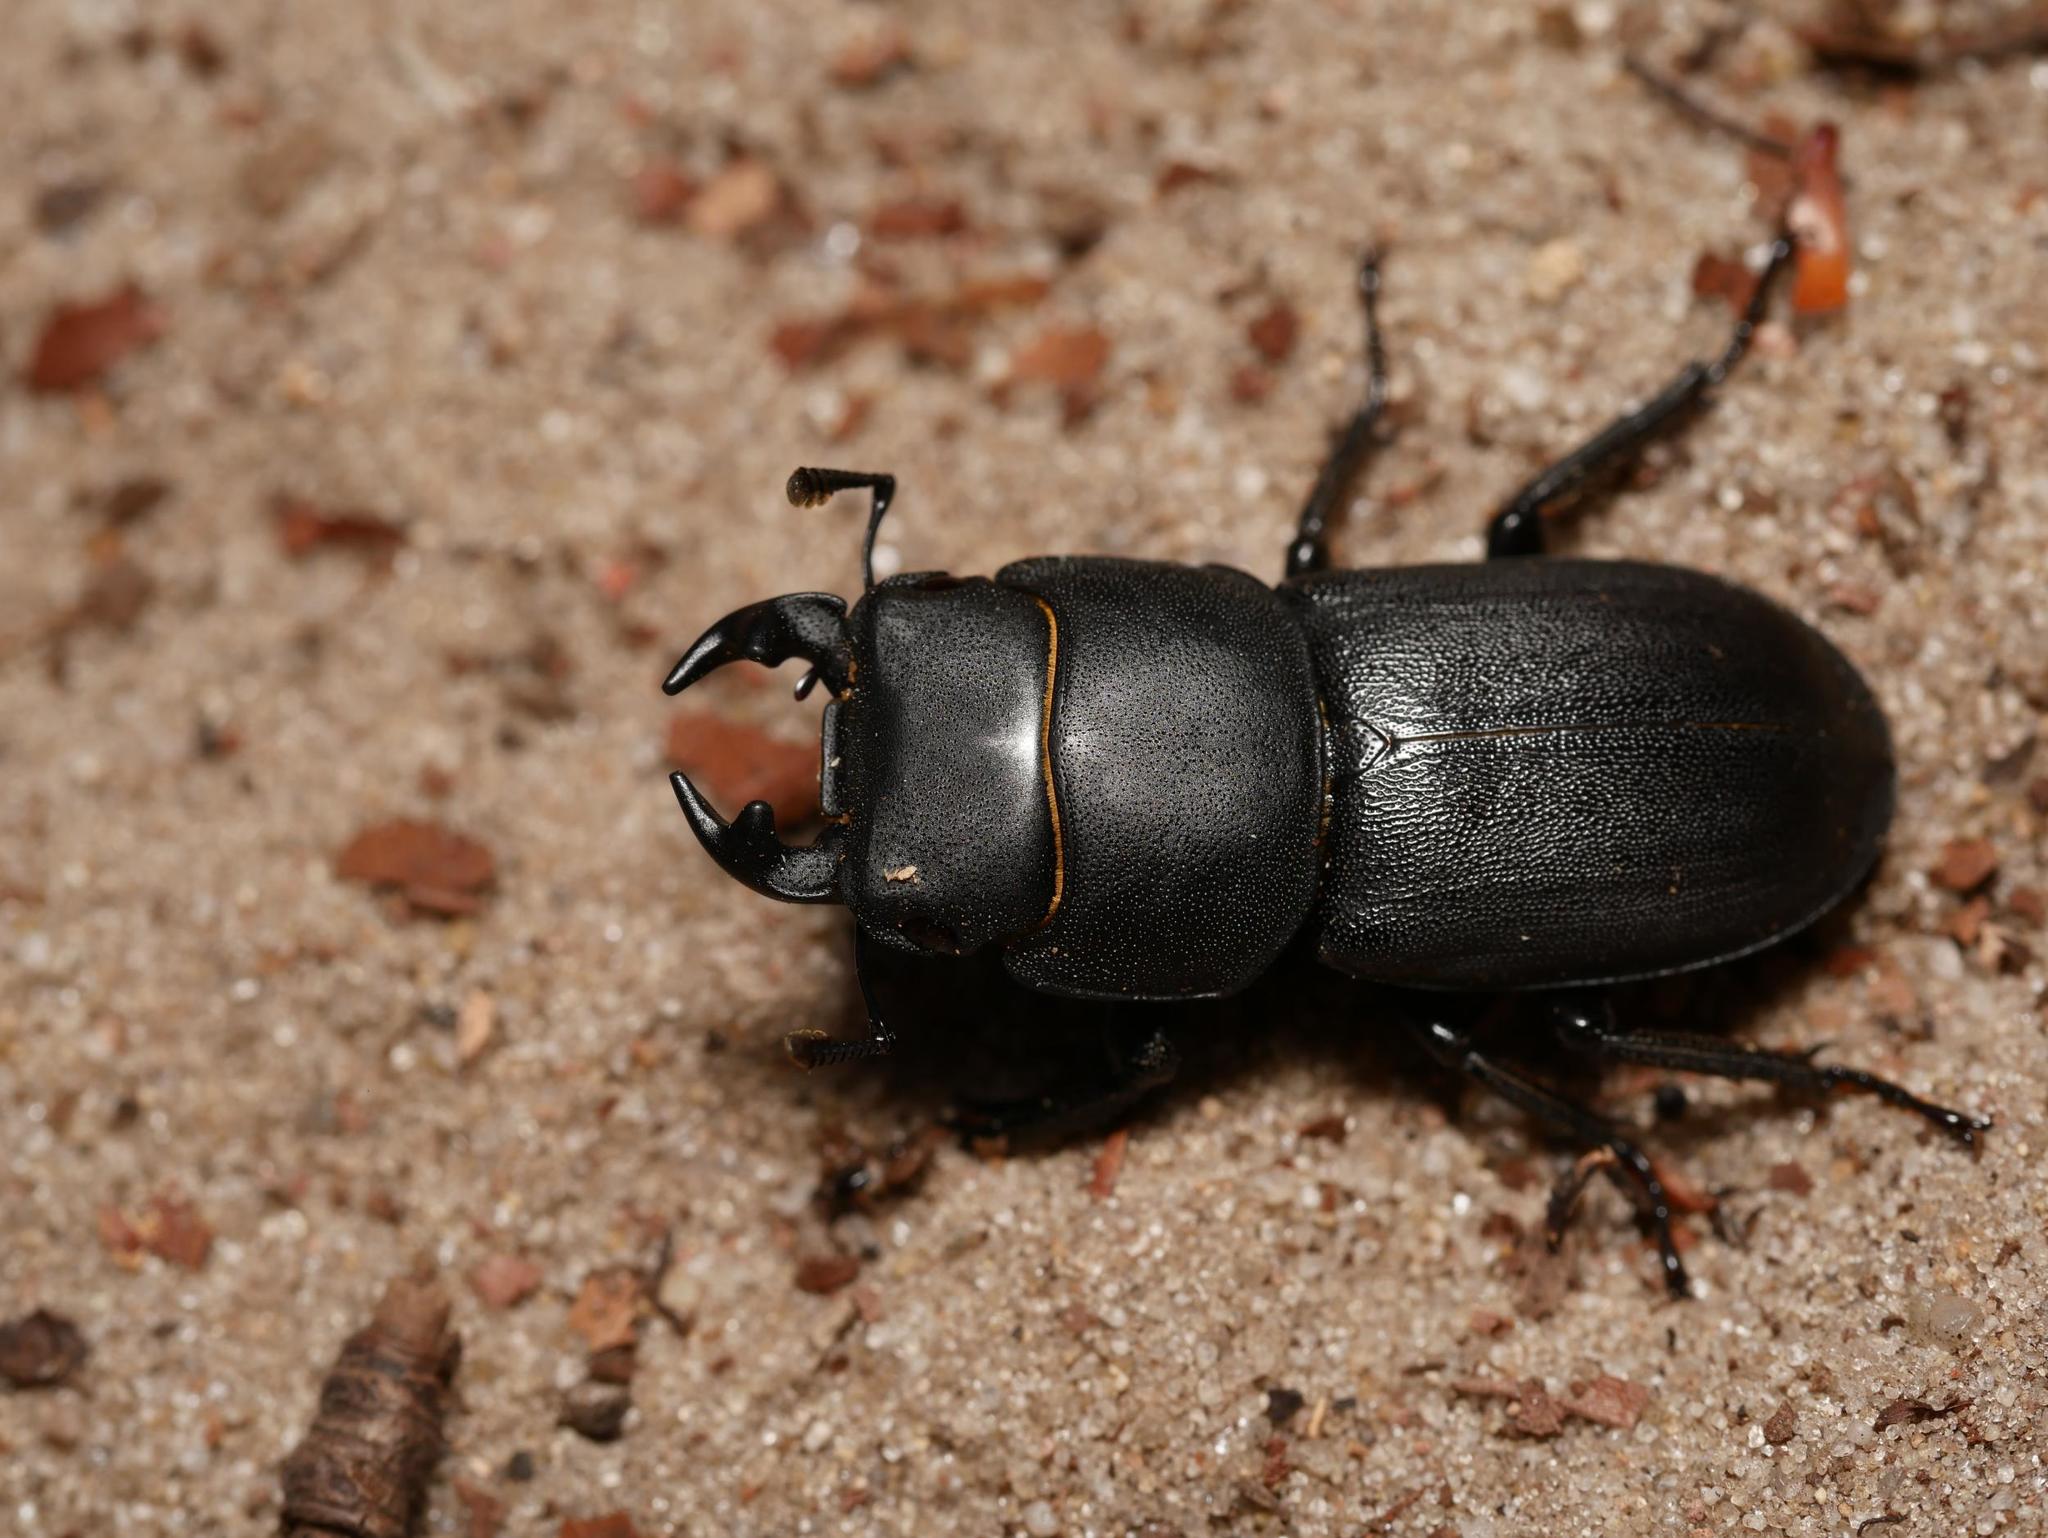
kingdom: Animalia
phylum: Arthropoda
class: Insecta
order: Coleoptera
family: Lucanidae
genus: Dorcus
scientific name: Dorcus parallelipipedus
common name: Lesser stag beetle
